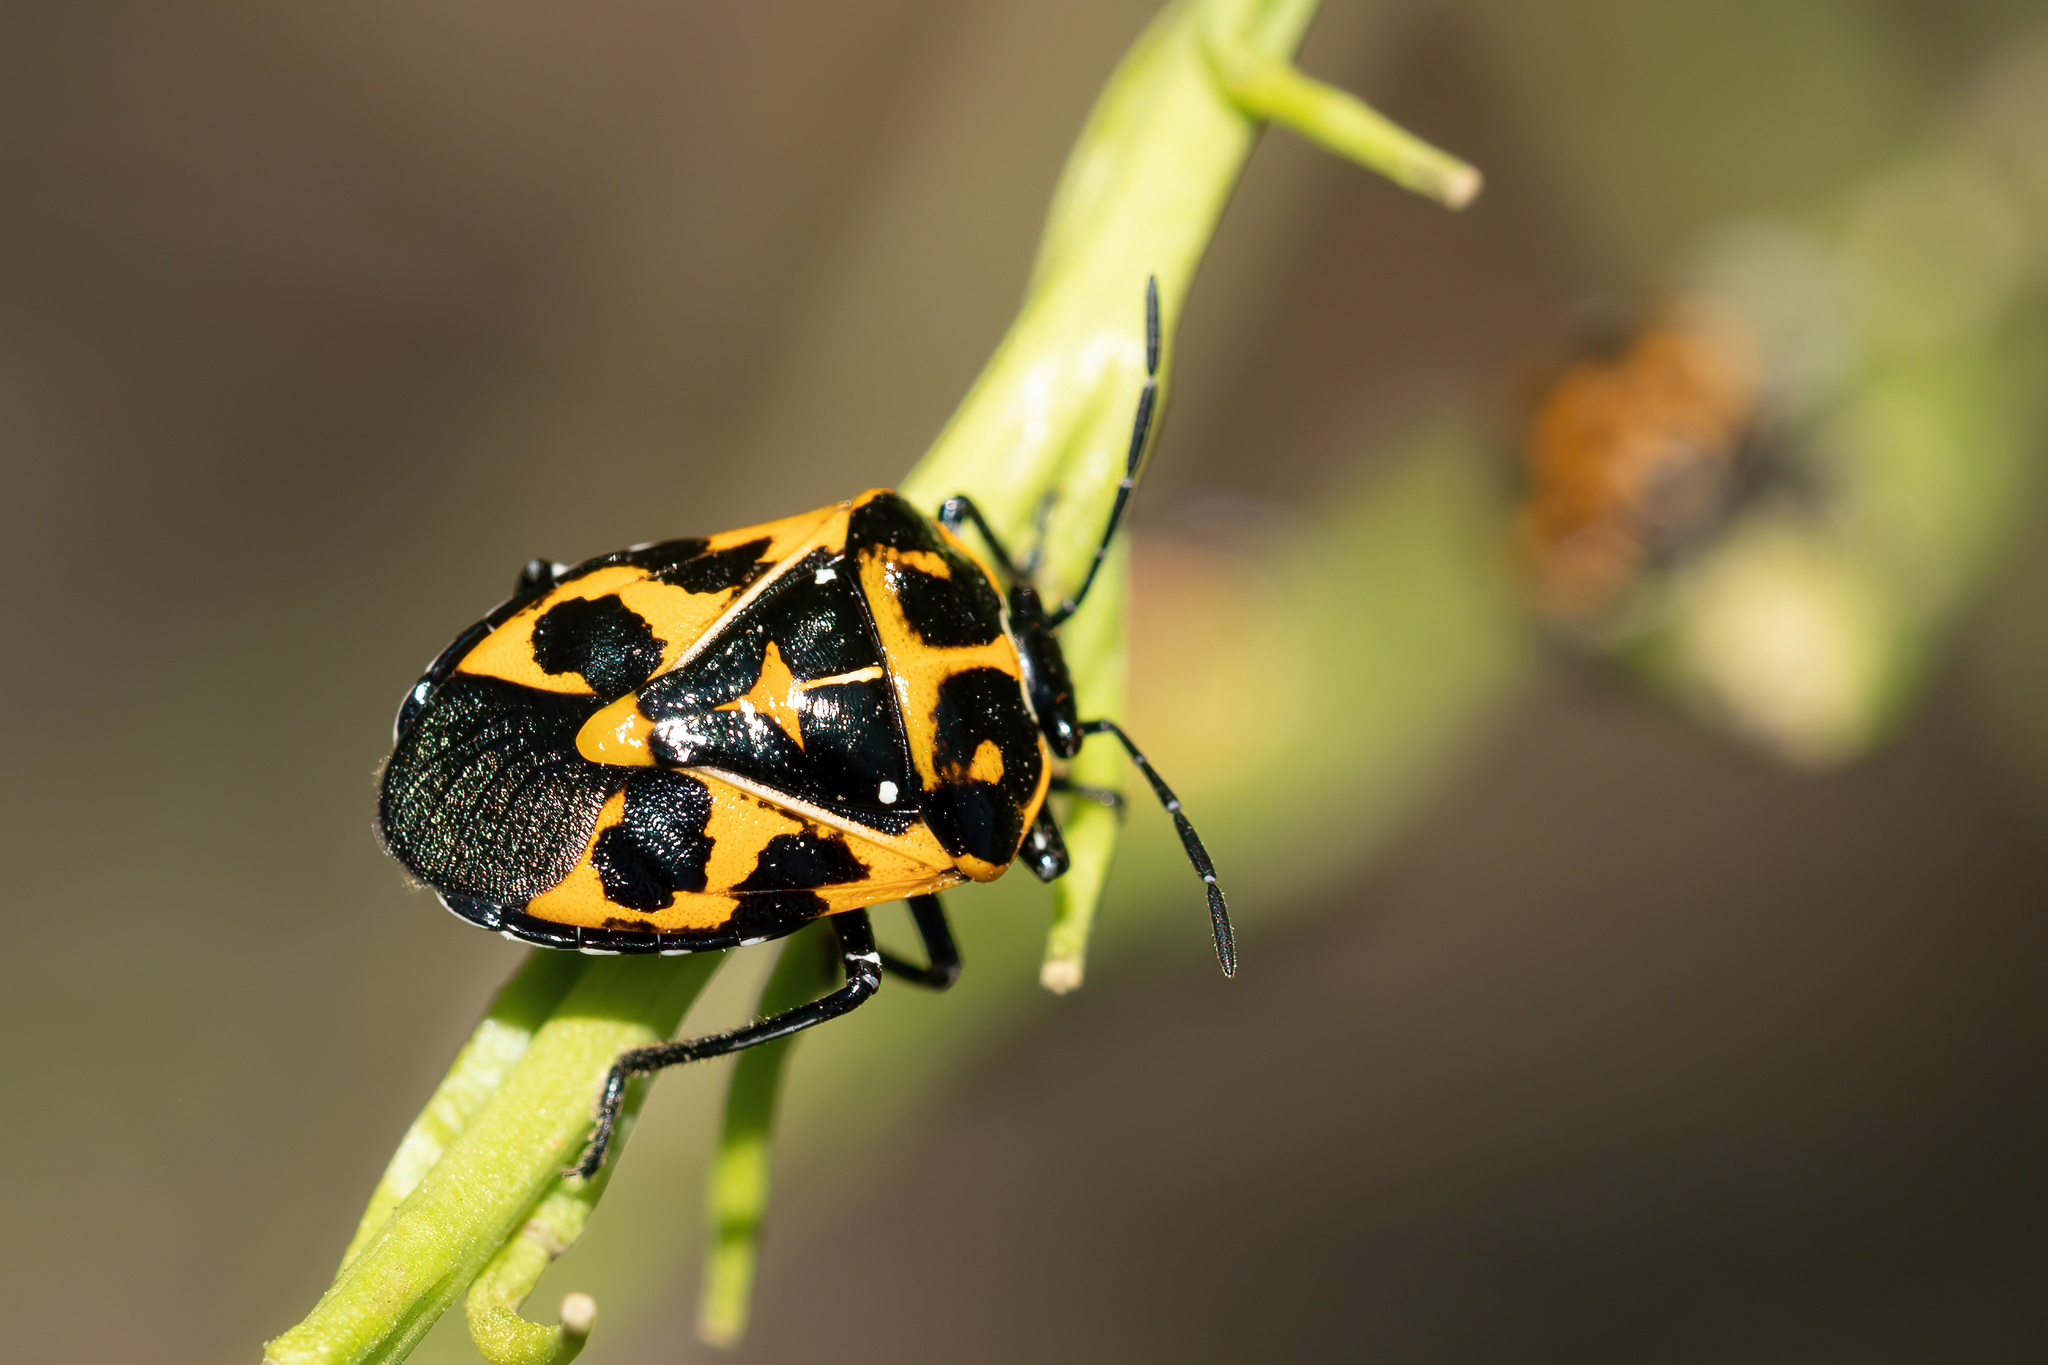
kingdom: Animalia
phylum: Arthropoda
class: Insecta
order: Hemiptera
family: Pentatomidae
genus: Murgantia
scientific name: Murgantia histrionica
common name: Harlequin bug
